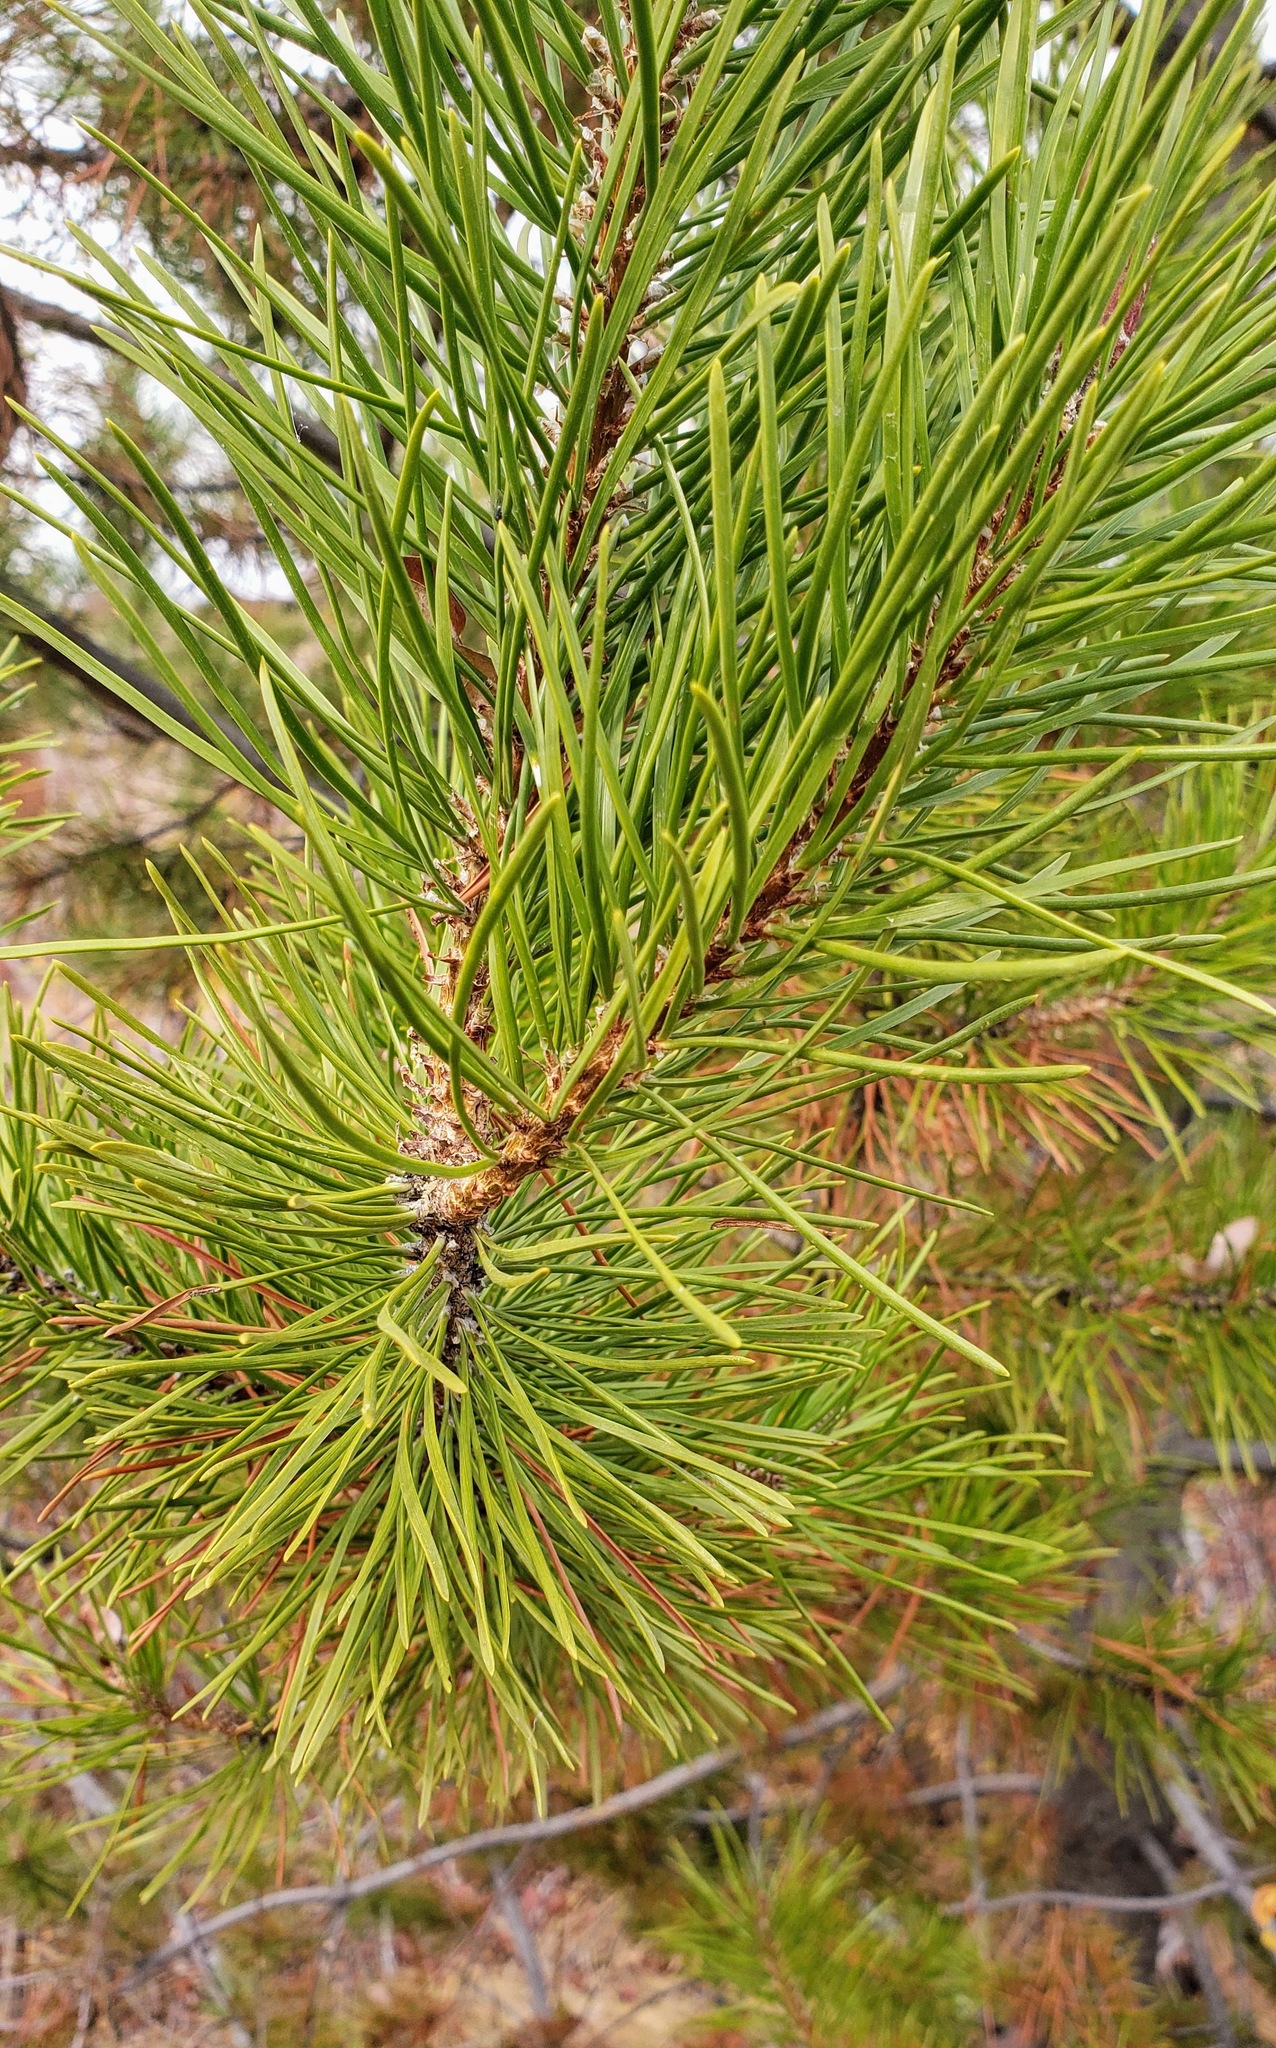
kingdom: Plantae
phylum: Tracheophyta
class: Pinopsida
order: Pinales
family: Pinaceae
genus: Pinus
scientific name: Pinus contorta
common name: Lodgepole pine
